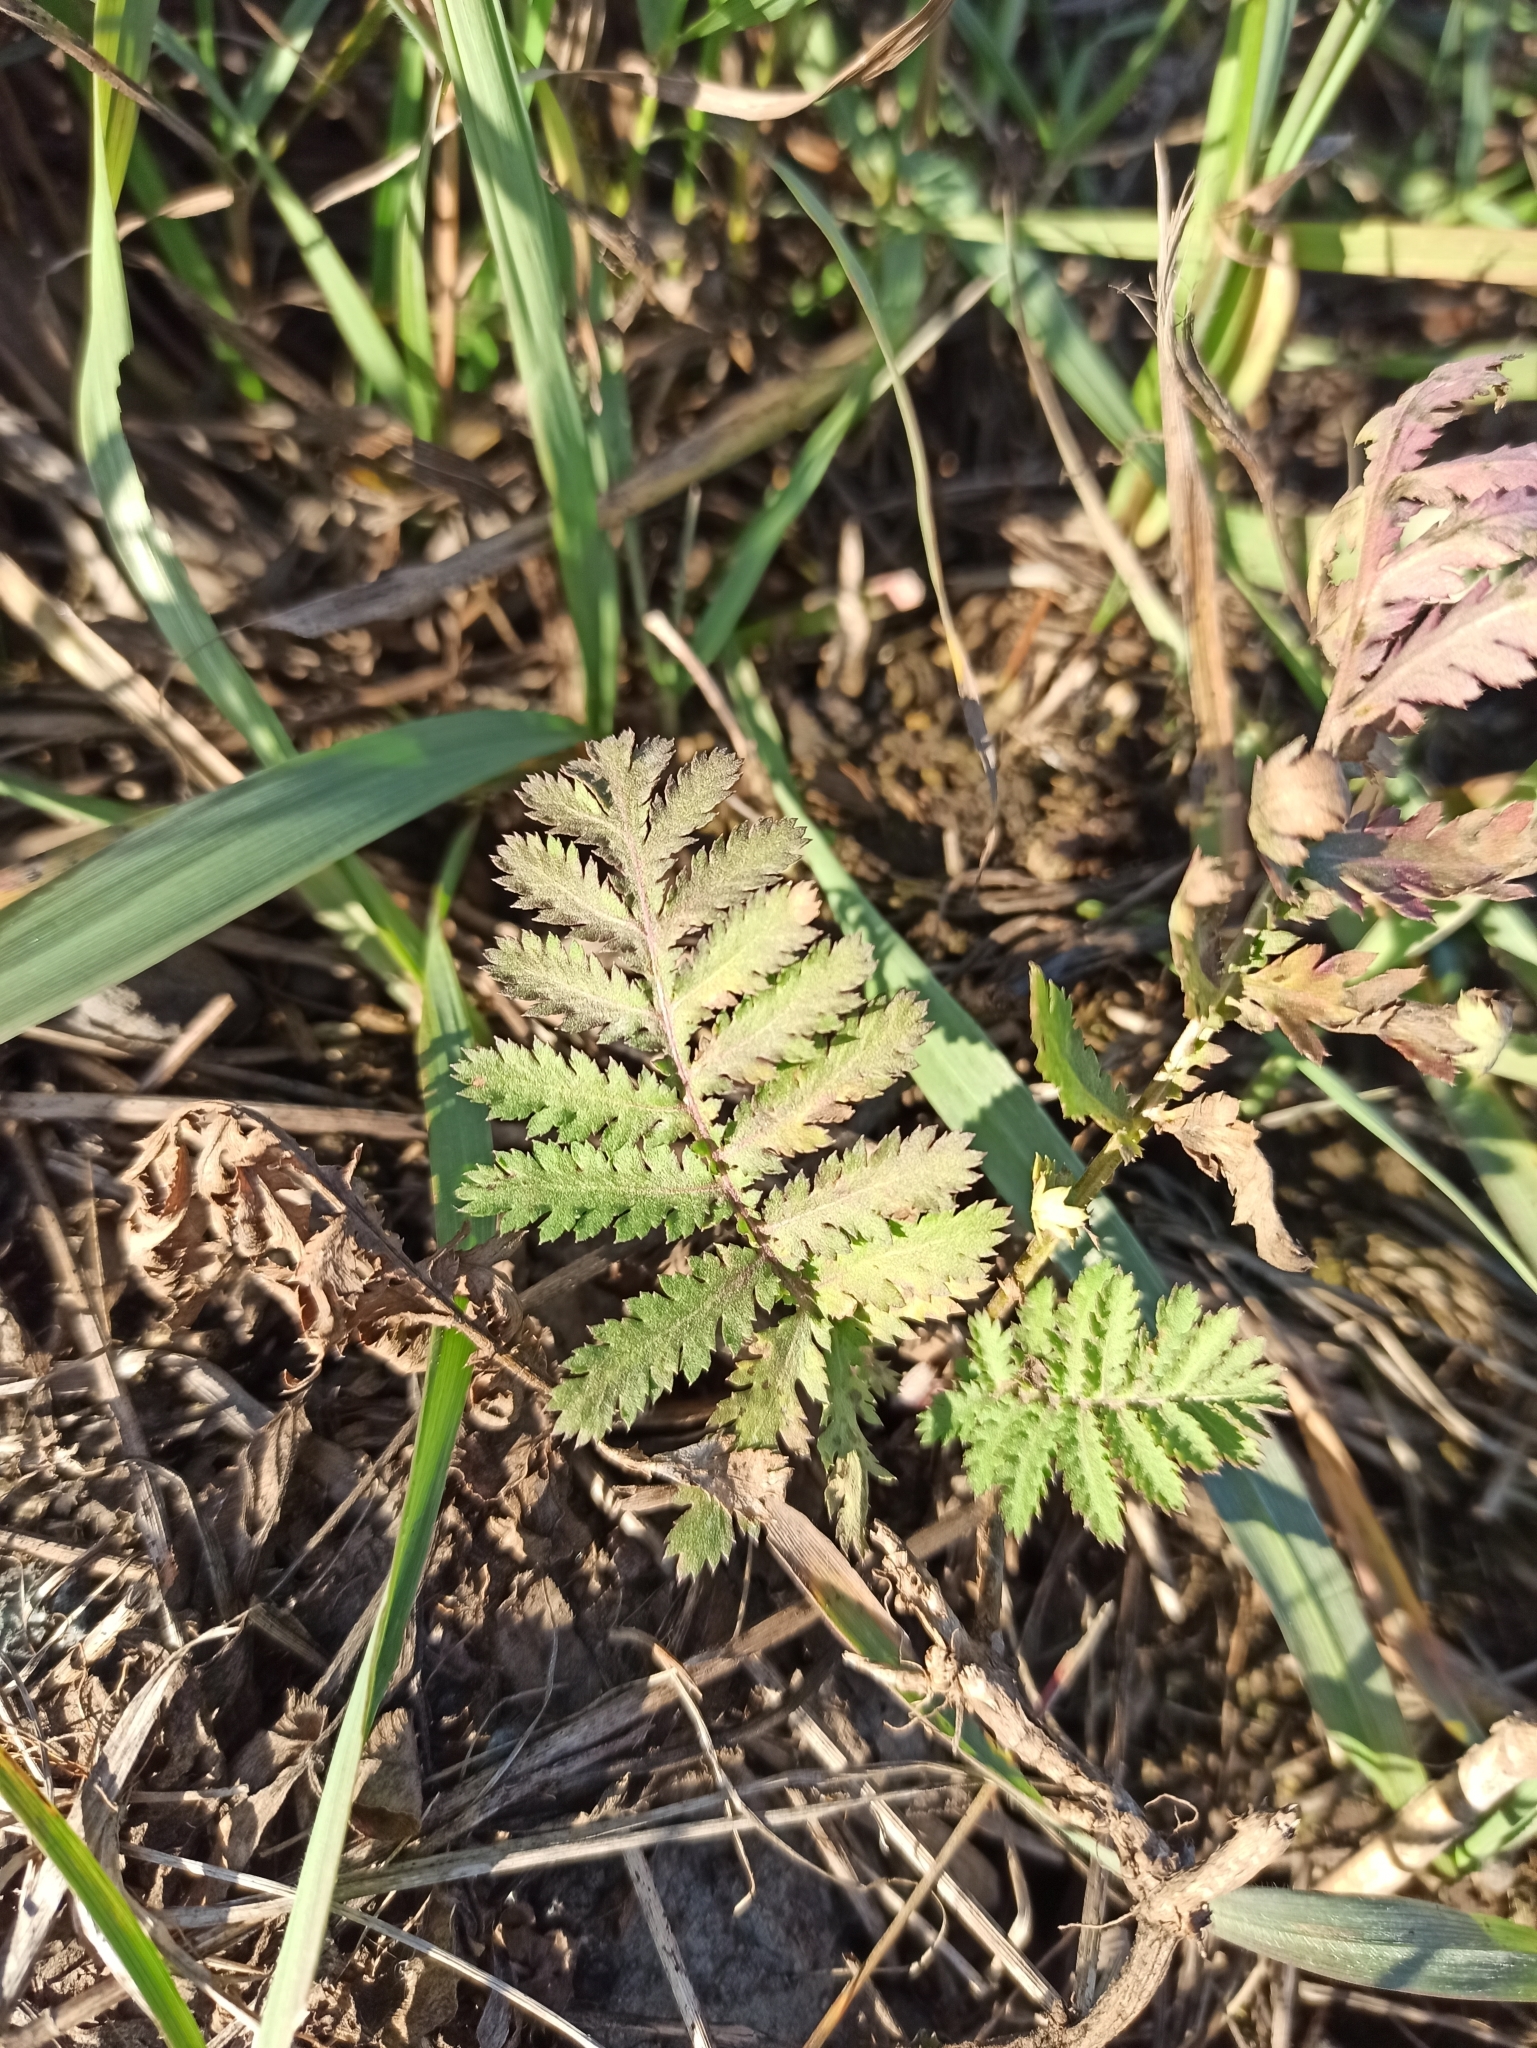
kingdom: Plantae
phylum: Tracheophyta
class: Magnoliopsida
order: Asterales
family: Asteraceae
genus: Tanacetum
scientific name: Tanacetum vulgare
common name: Common tansy
